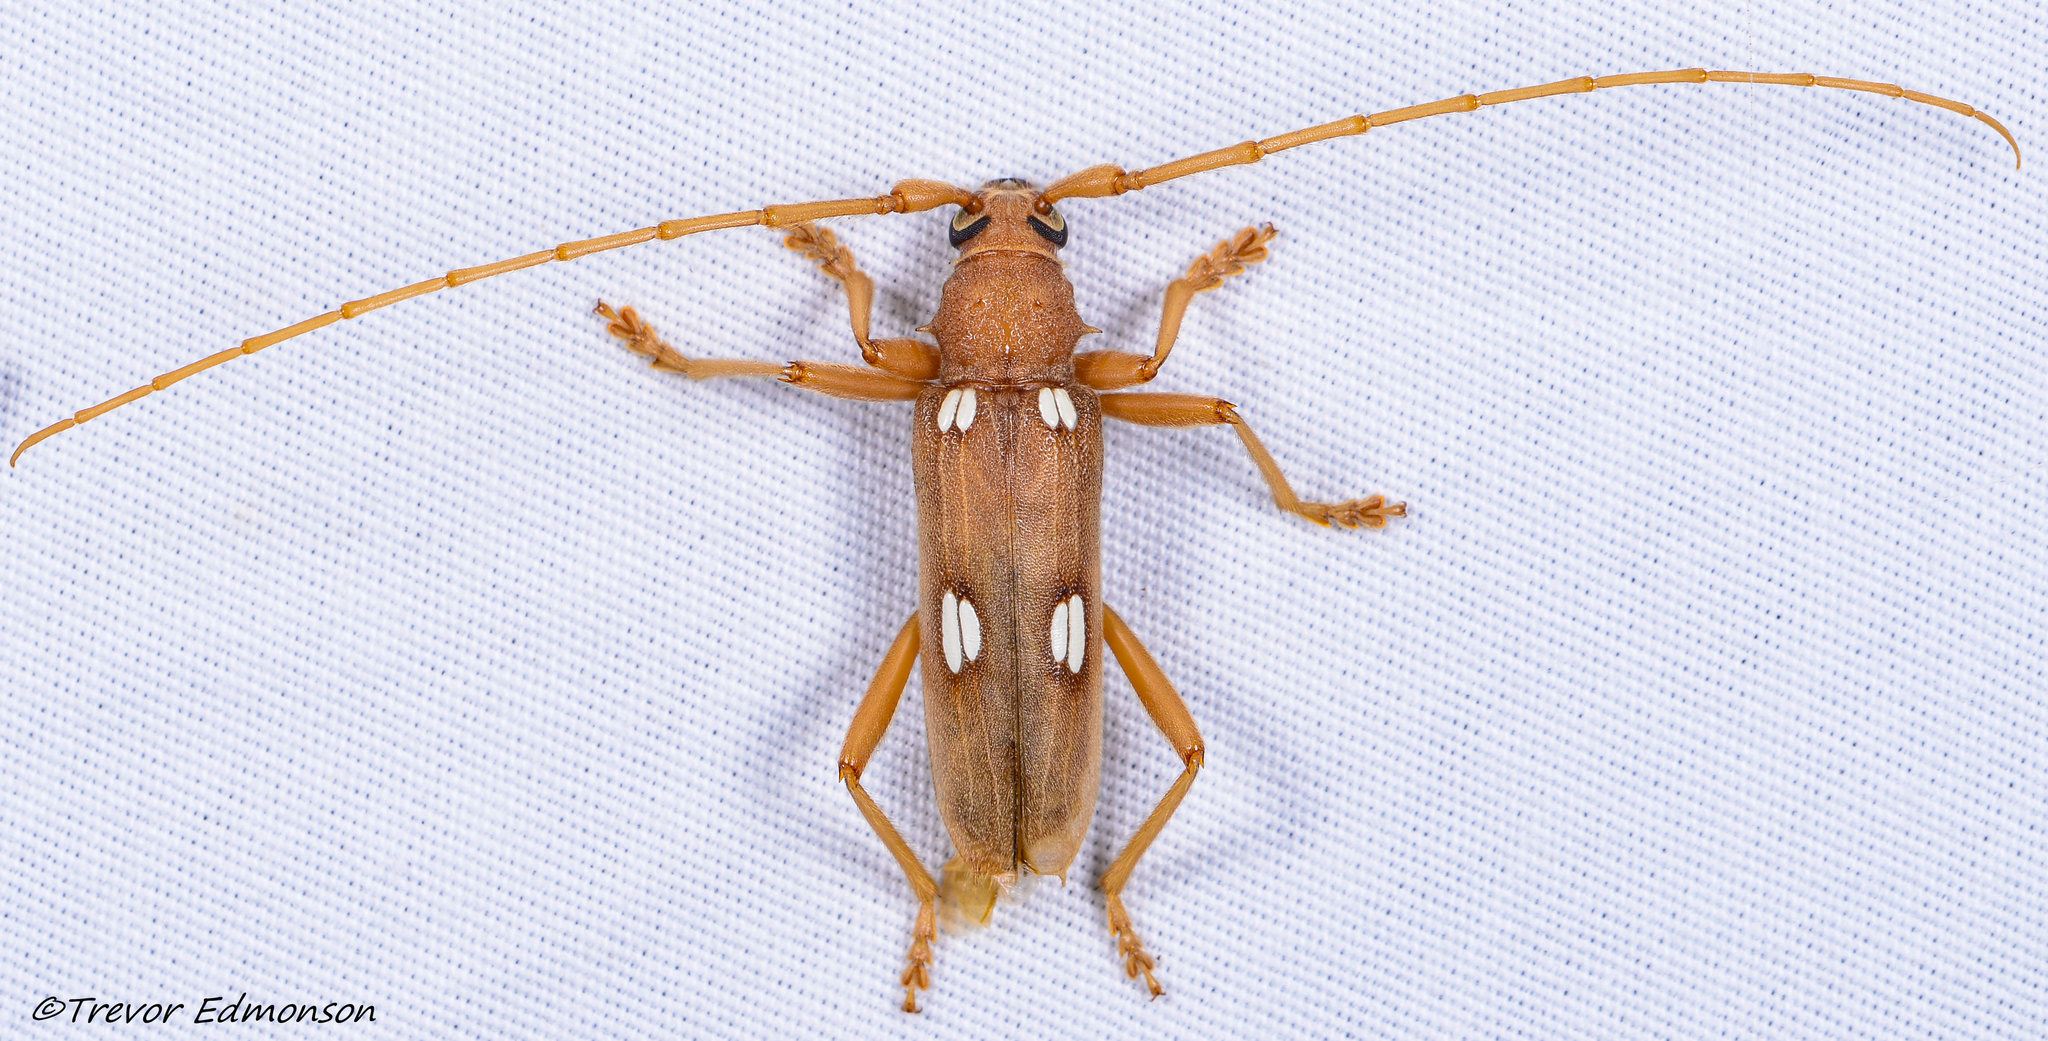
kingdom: Animalia
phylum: Arthropoda
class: Insecta
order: Coleoptera
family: Cerambycidae
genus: Eburia
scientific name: Eburia quadrigeminata
